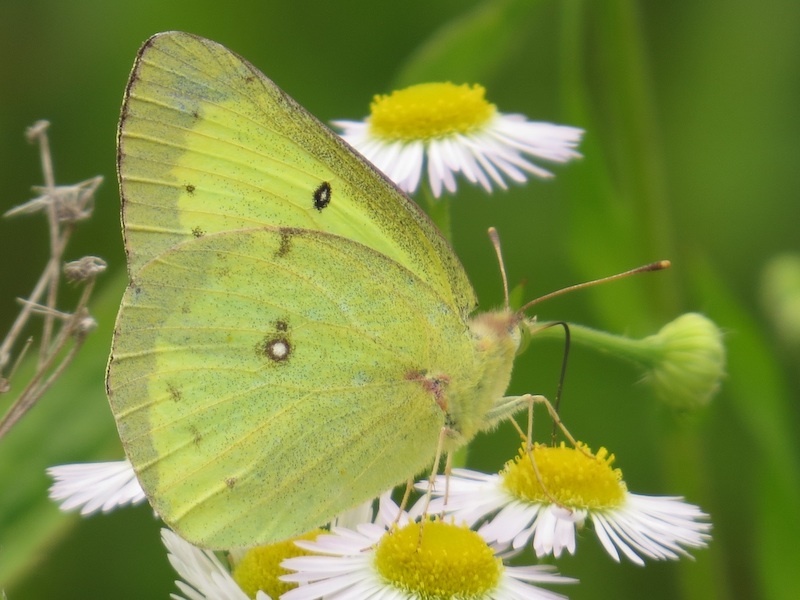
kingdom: Animalia
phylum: Arthropoda
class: Insecta
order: Lepidoptera
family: Pieridae
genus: Colias
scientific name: Colias philodice
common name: Clouded sulphur
